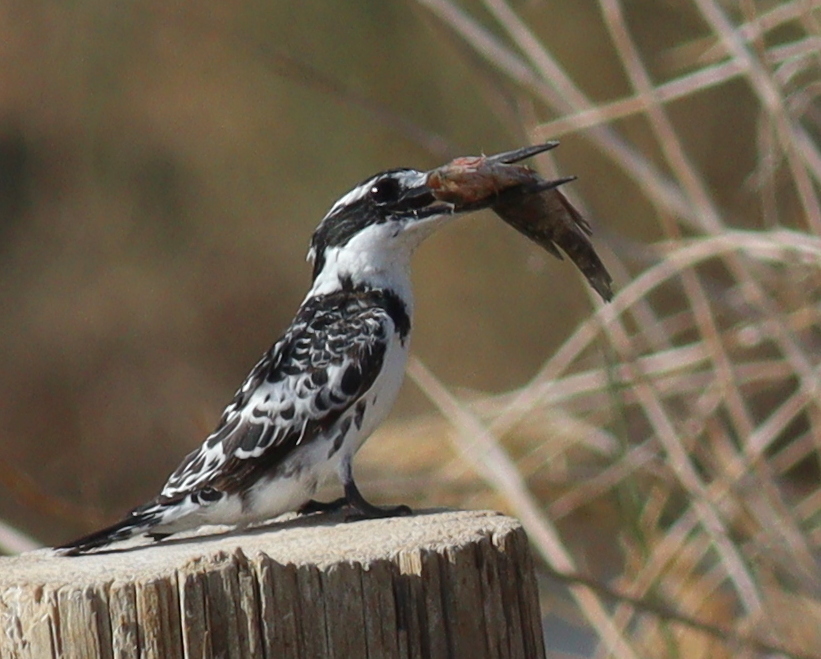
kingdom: Animalia
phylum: Chordata
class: Aves
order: Coraciiformes
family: Alcedinidae
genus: Ceryle
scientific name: Ceryle rudis
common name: Pied kingfisher
